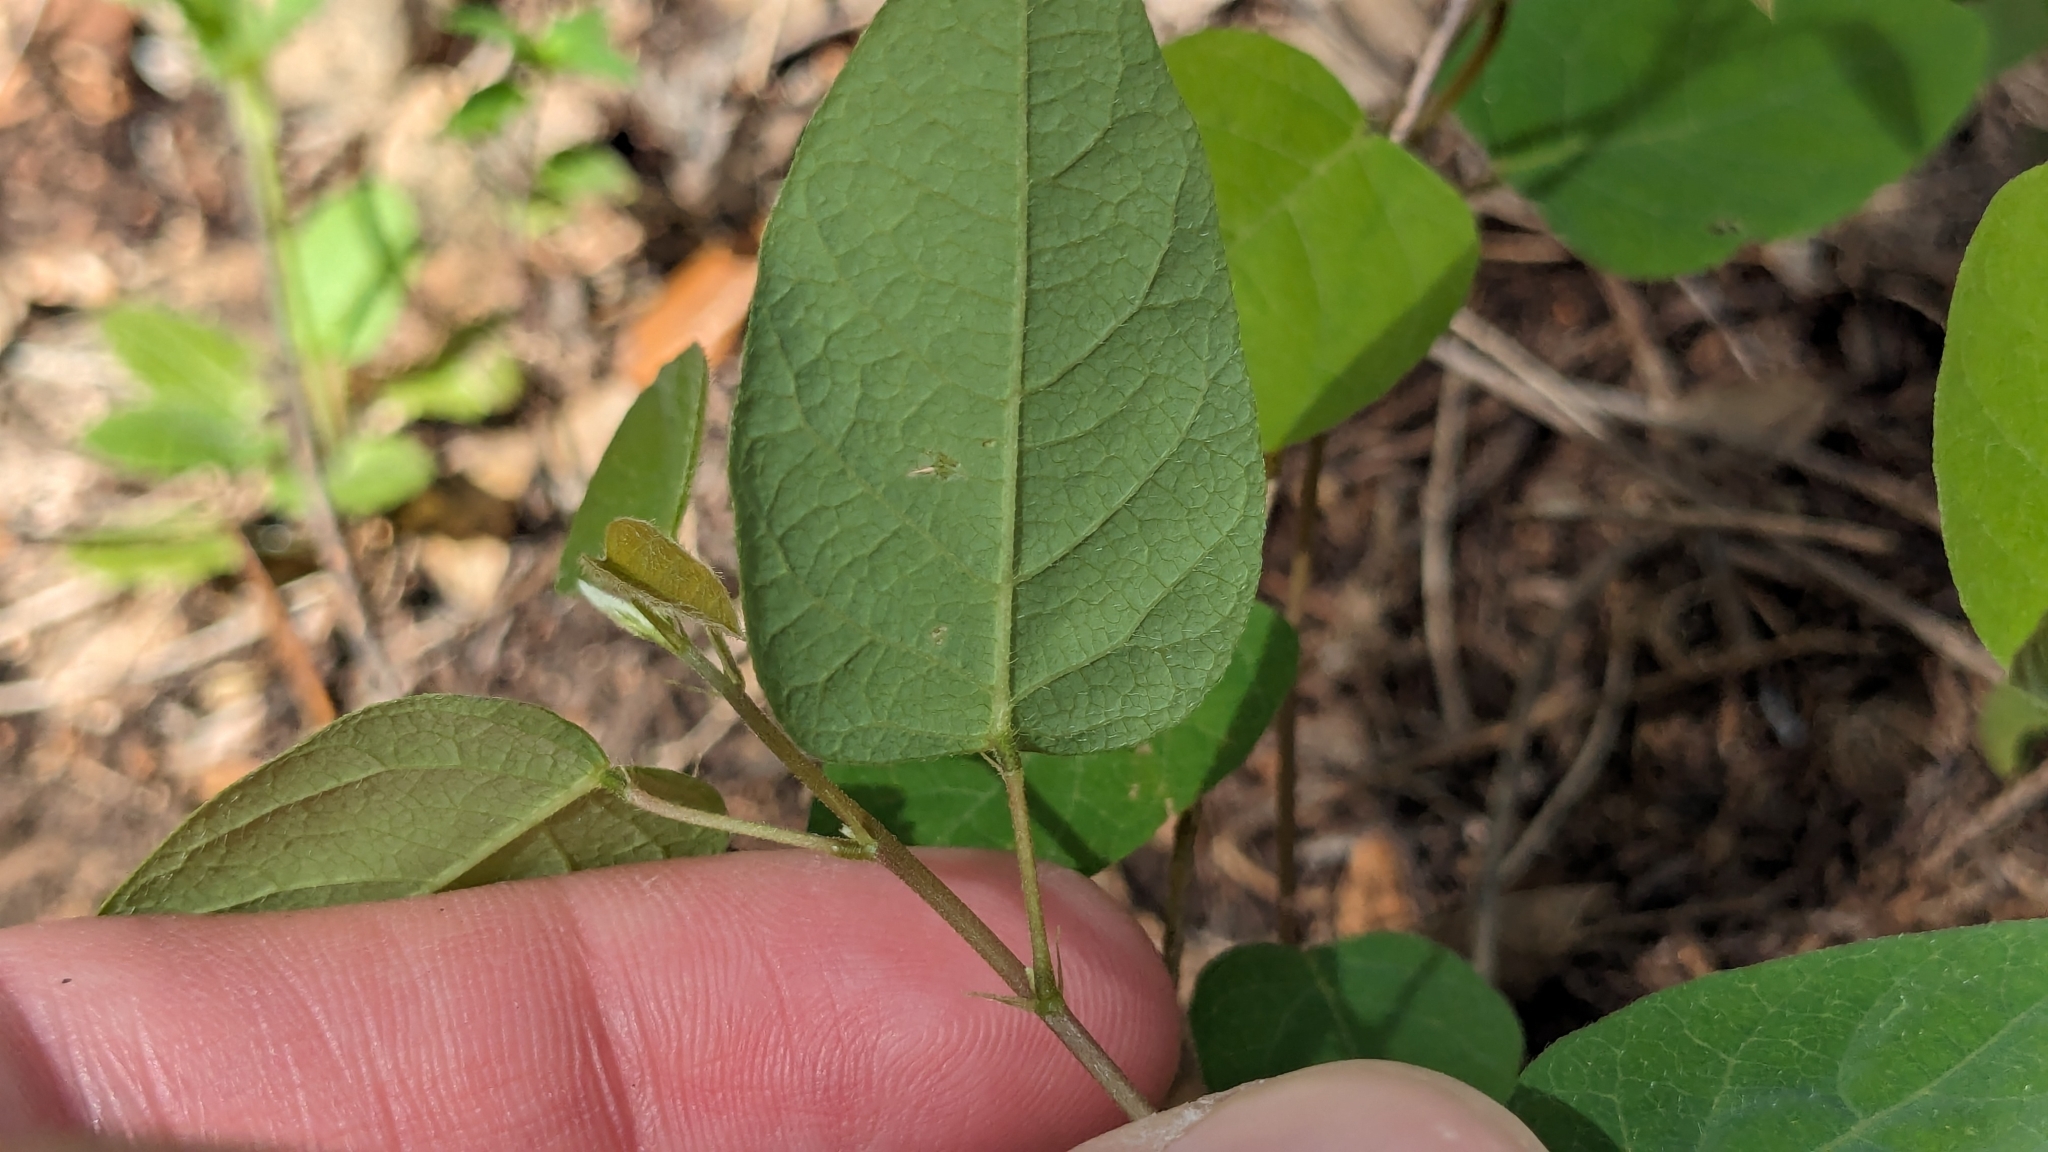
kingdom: Plantae
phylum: Tracheophyta
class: Magnoliopsida
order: Fabales
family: Fabaceae
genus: Desmodium
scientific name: Desmodium psilophyllum
